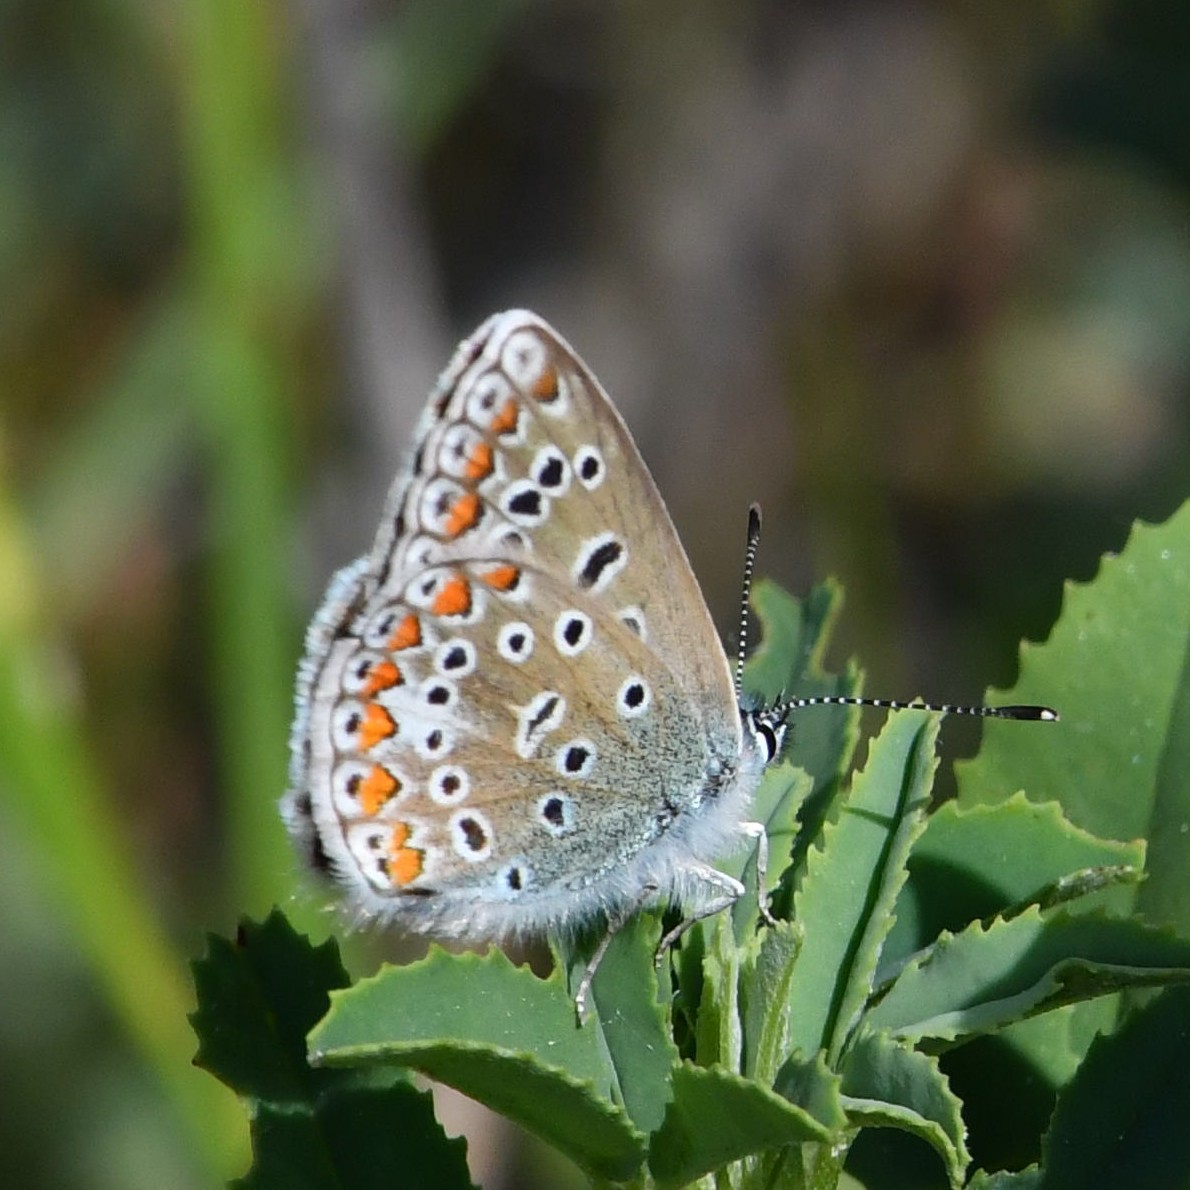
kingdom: Animalia
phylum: Arthropoda
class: Insecta
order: Lepidoptera
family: Lycaenidae
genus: Polyommatus
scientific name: Polyommatus icarus
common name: Common blue
